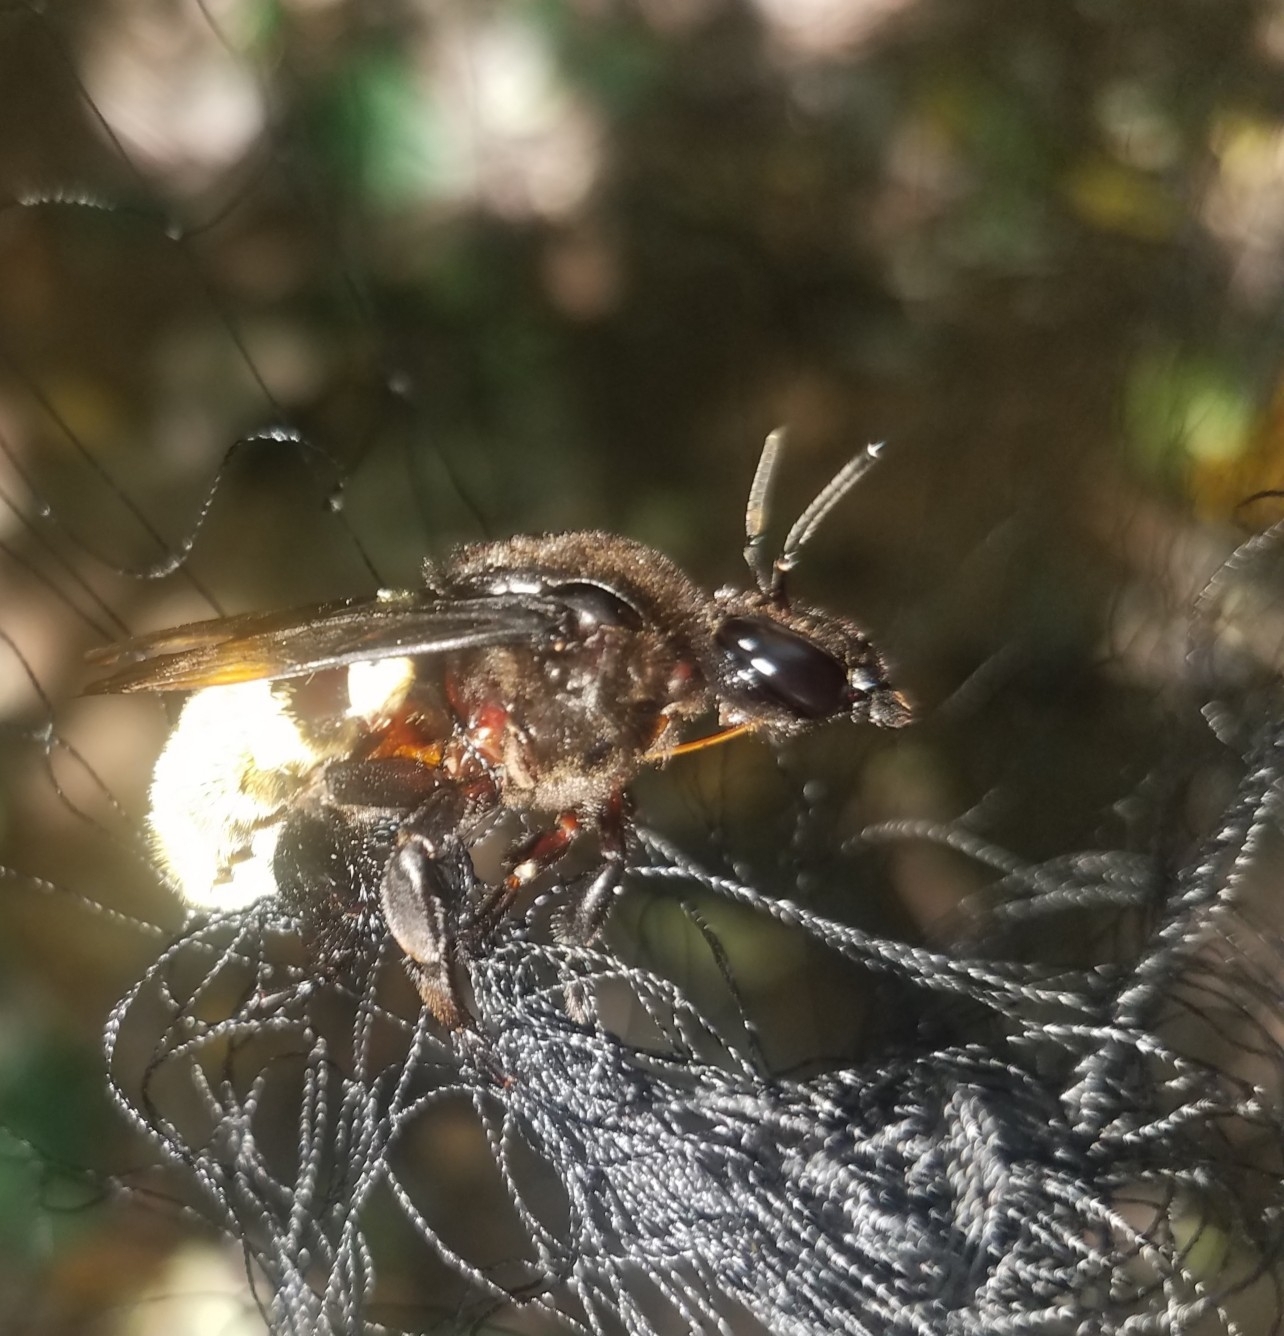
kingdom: Animalia
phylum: Arthropoda
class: Insecta
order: Hymenoptera
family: Apidae
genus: Eulaema
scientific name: Eulaema cingulata
